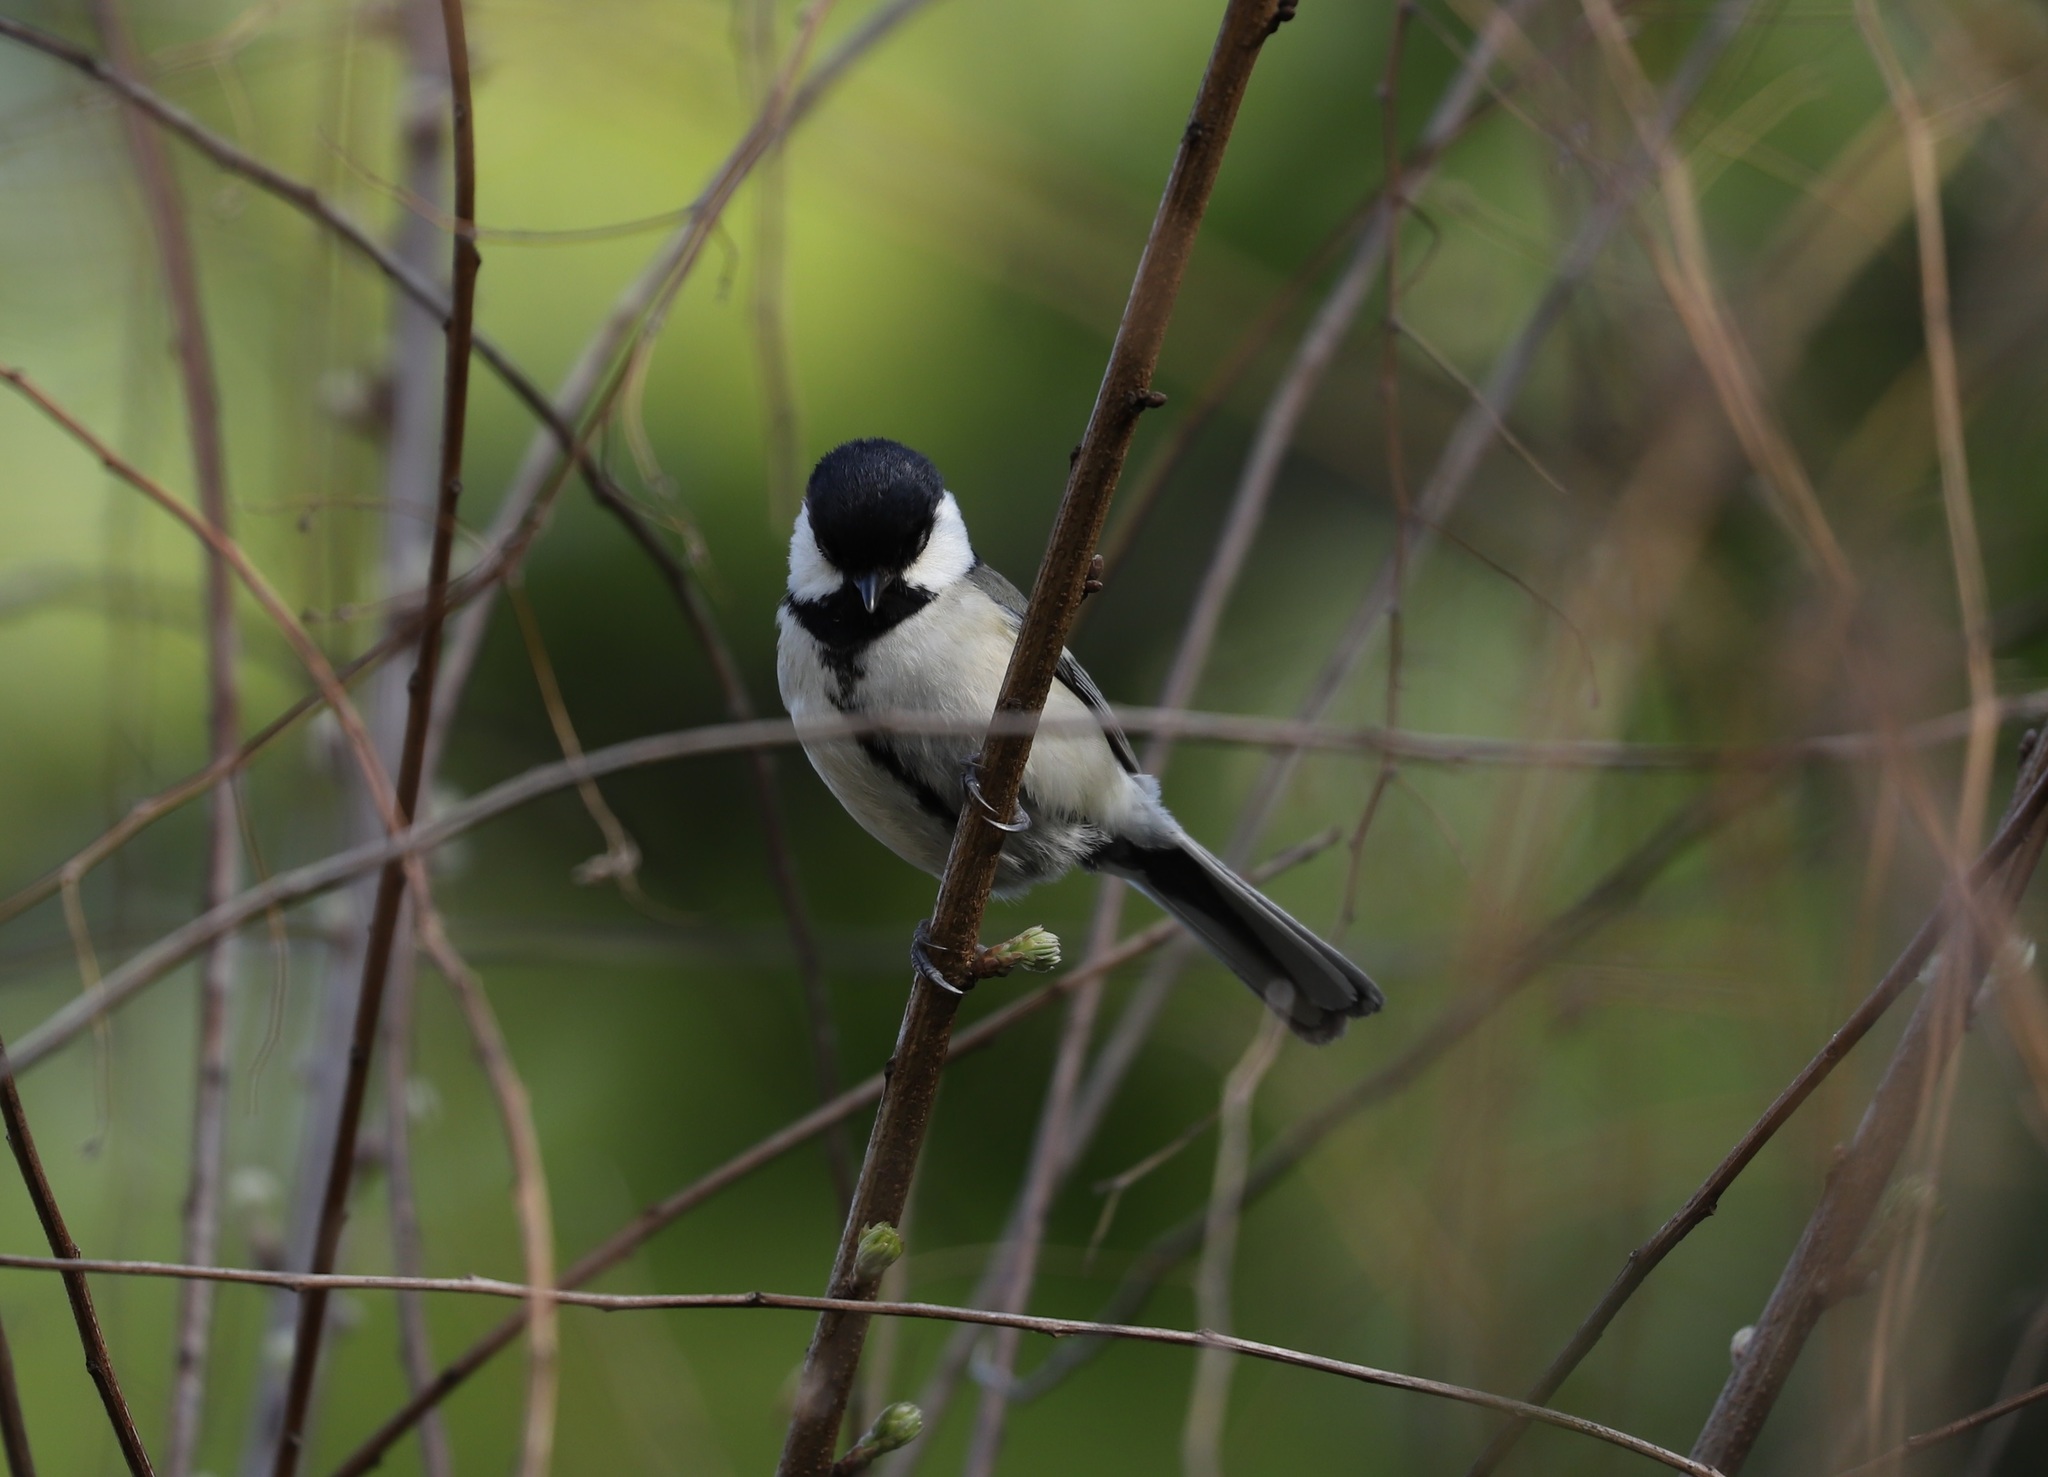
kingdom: Animalia
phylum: Chordata
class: Aves
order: Passeriformes
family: Paridae
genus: Parus
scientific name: Parus minor
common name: Japanese tit
